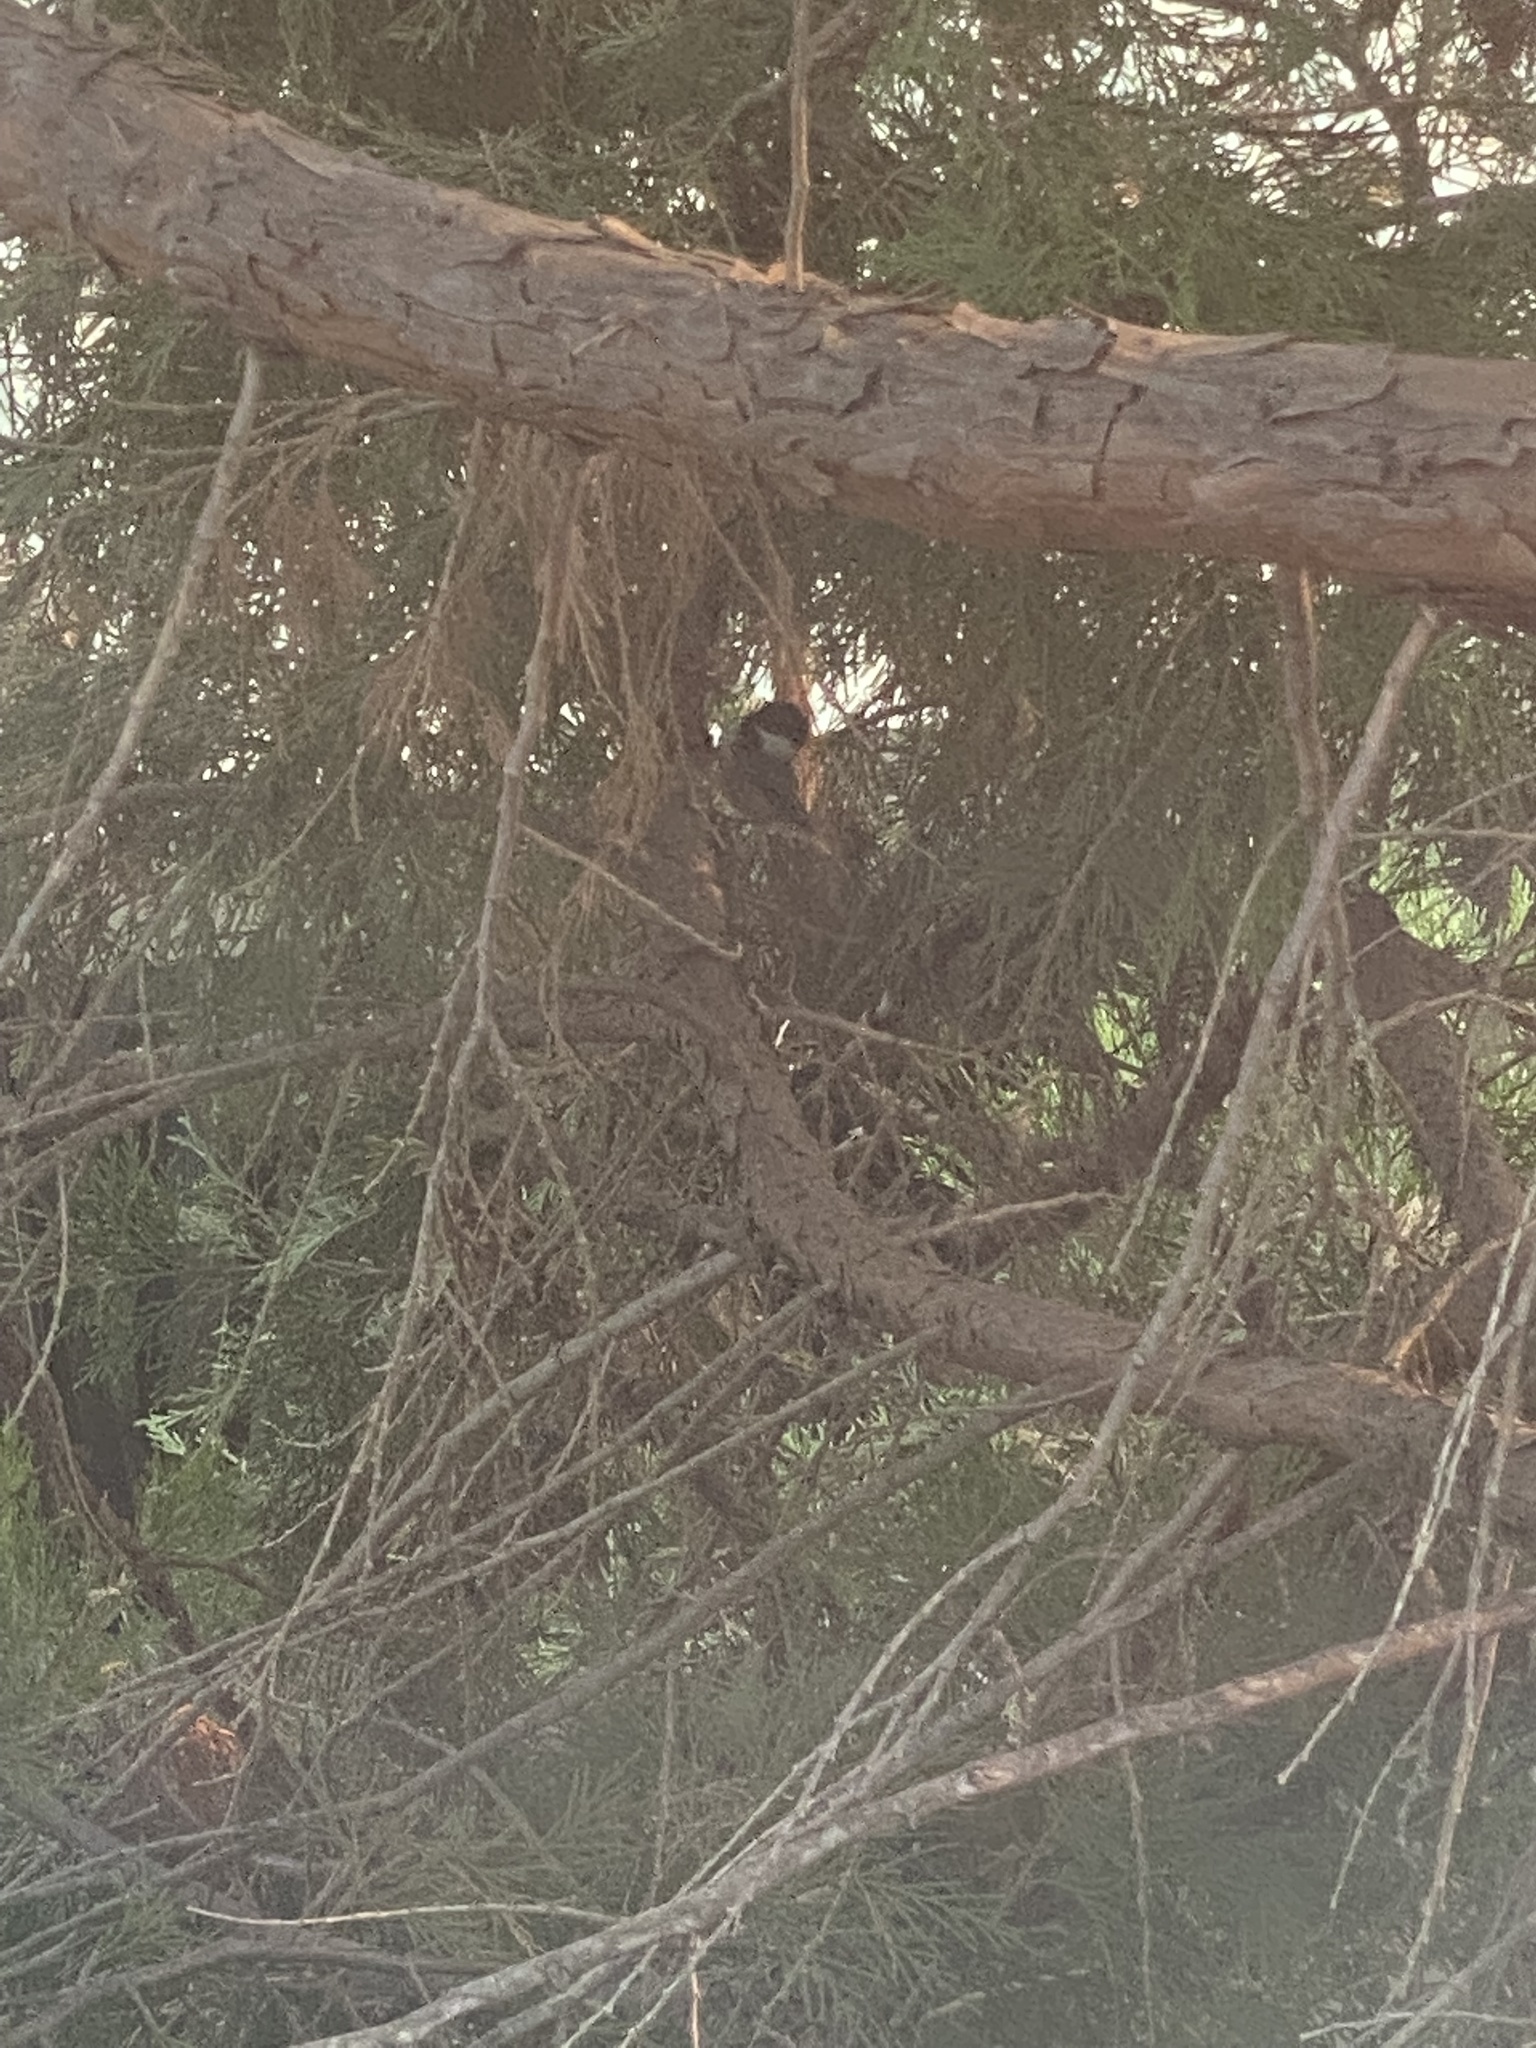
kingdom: Animalia
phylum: Chordata
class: Aves
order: Passeriformes
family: Paridae
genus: Poecile
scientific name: Poecile atricapillus
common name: Black-capped chickadee
